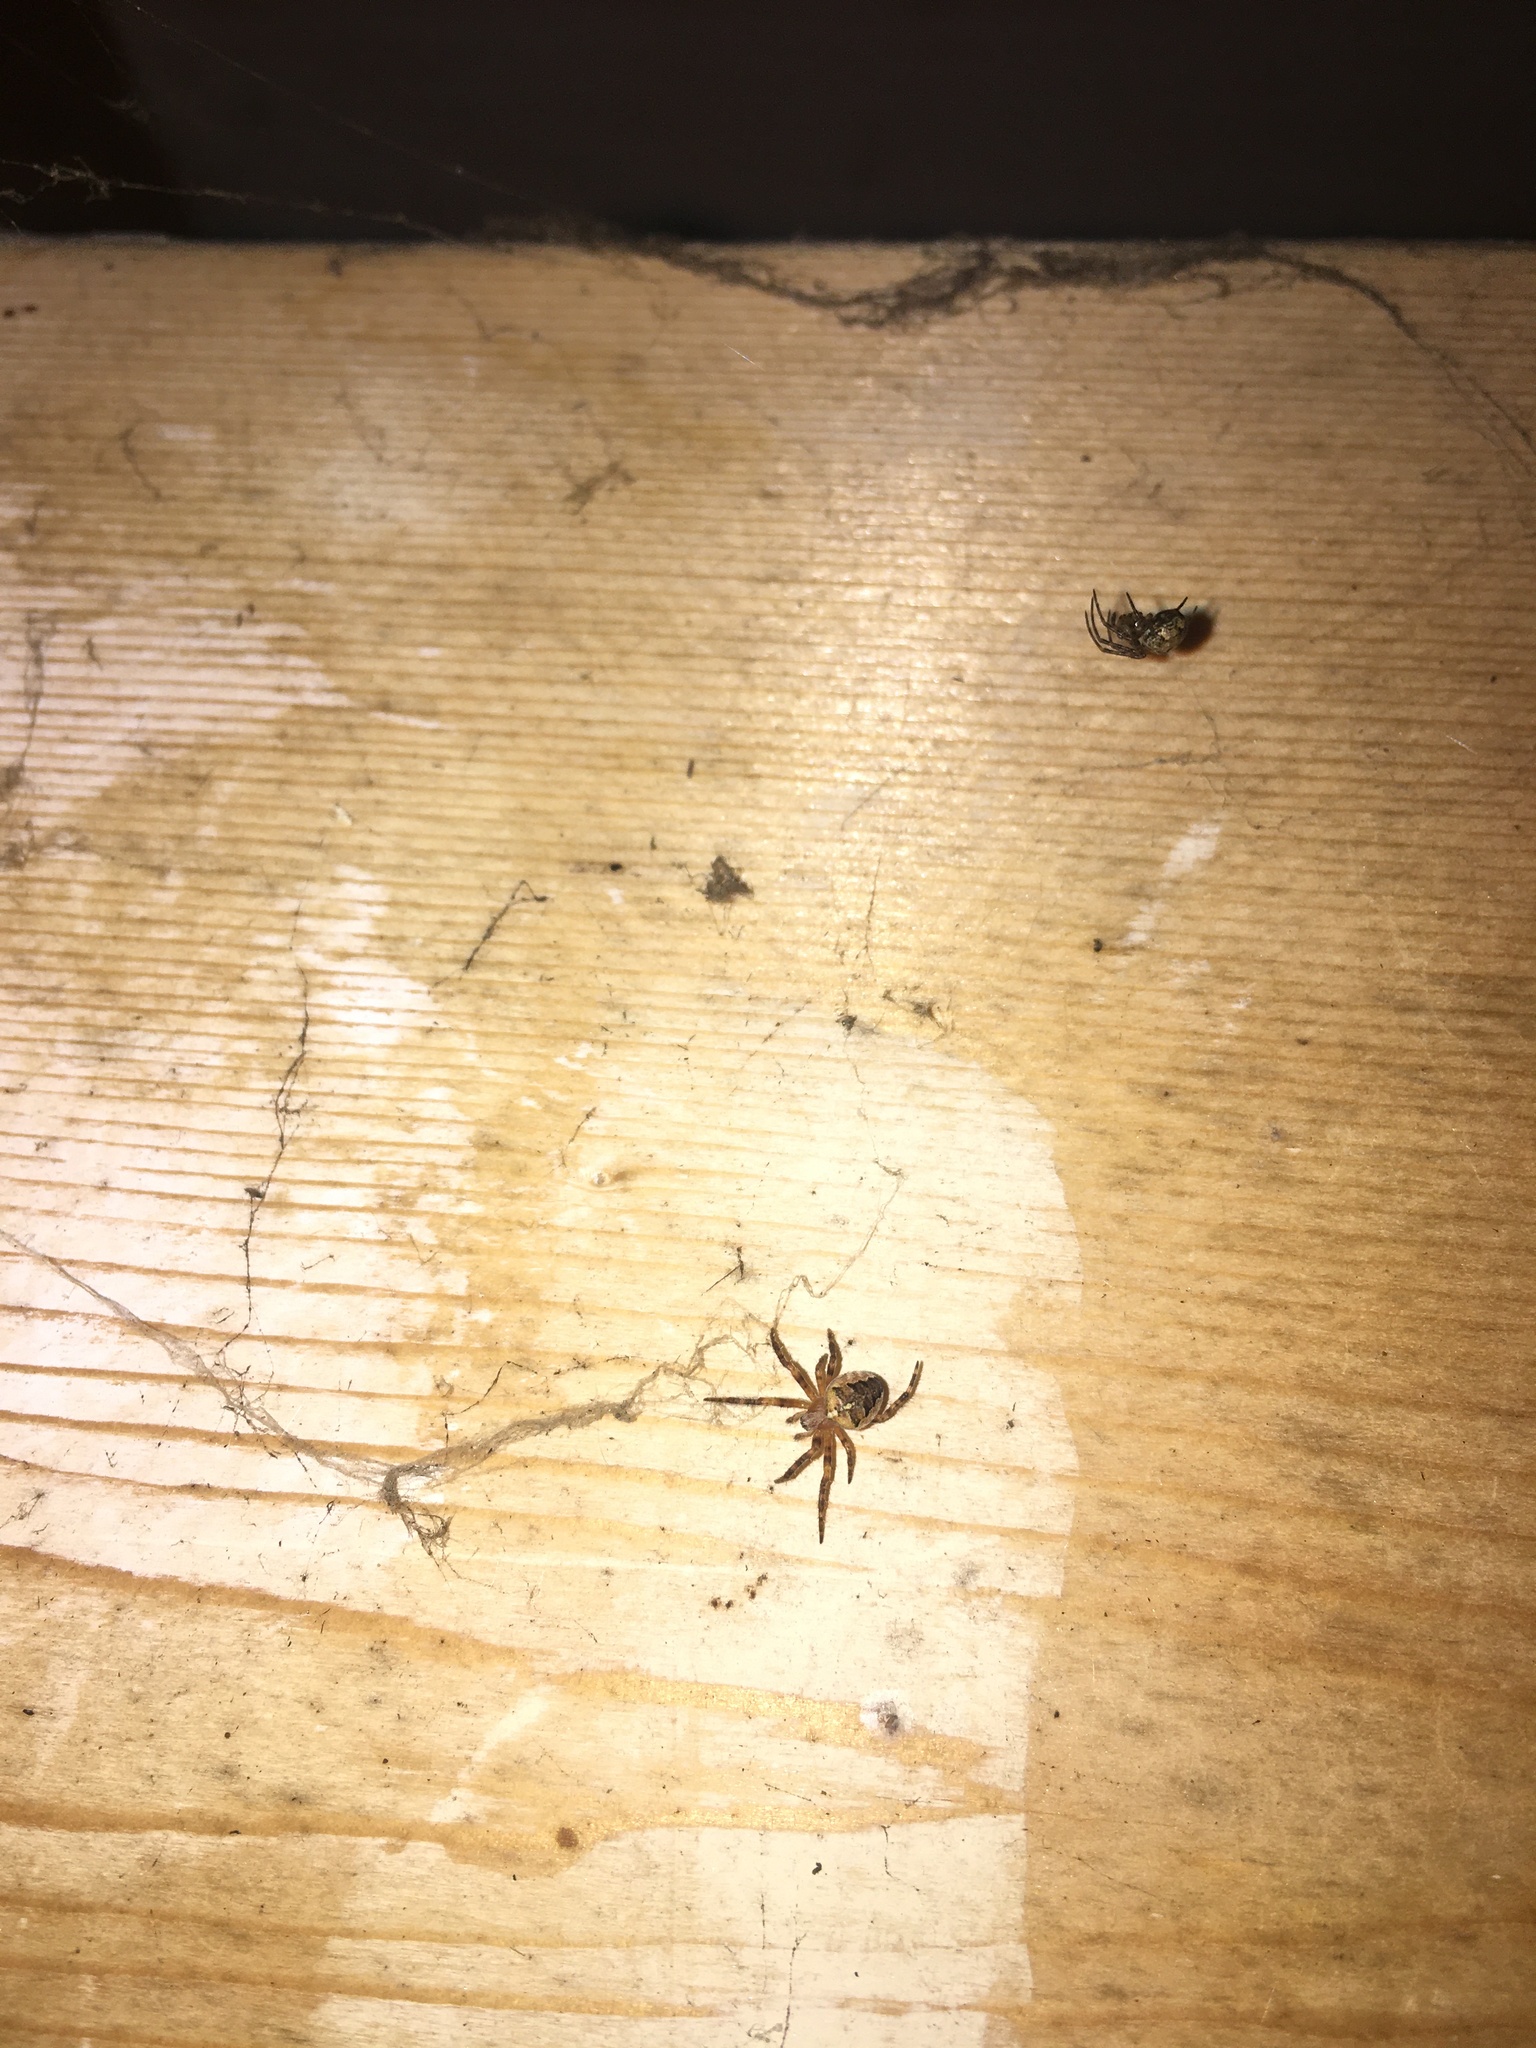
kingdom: Animalia
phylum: Arthropoda
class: Arachnida
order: Araneae
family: Araneidae
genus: Araneus
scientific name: Araneus diadematus
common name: Cross orbweaver
